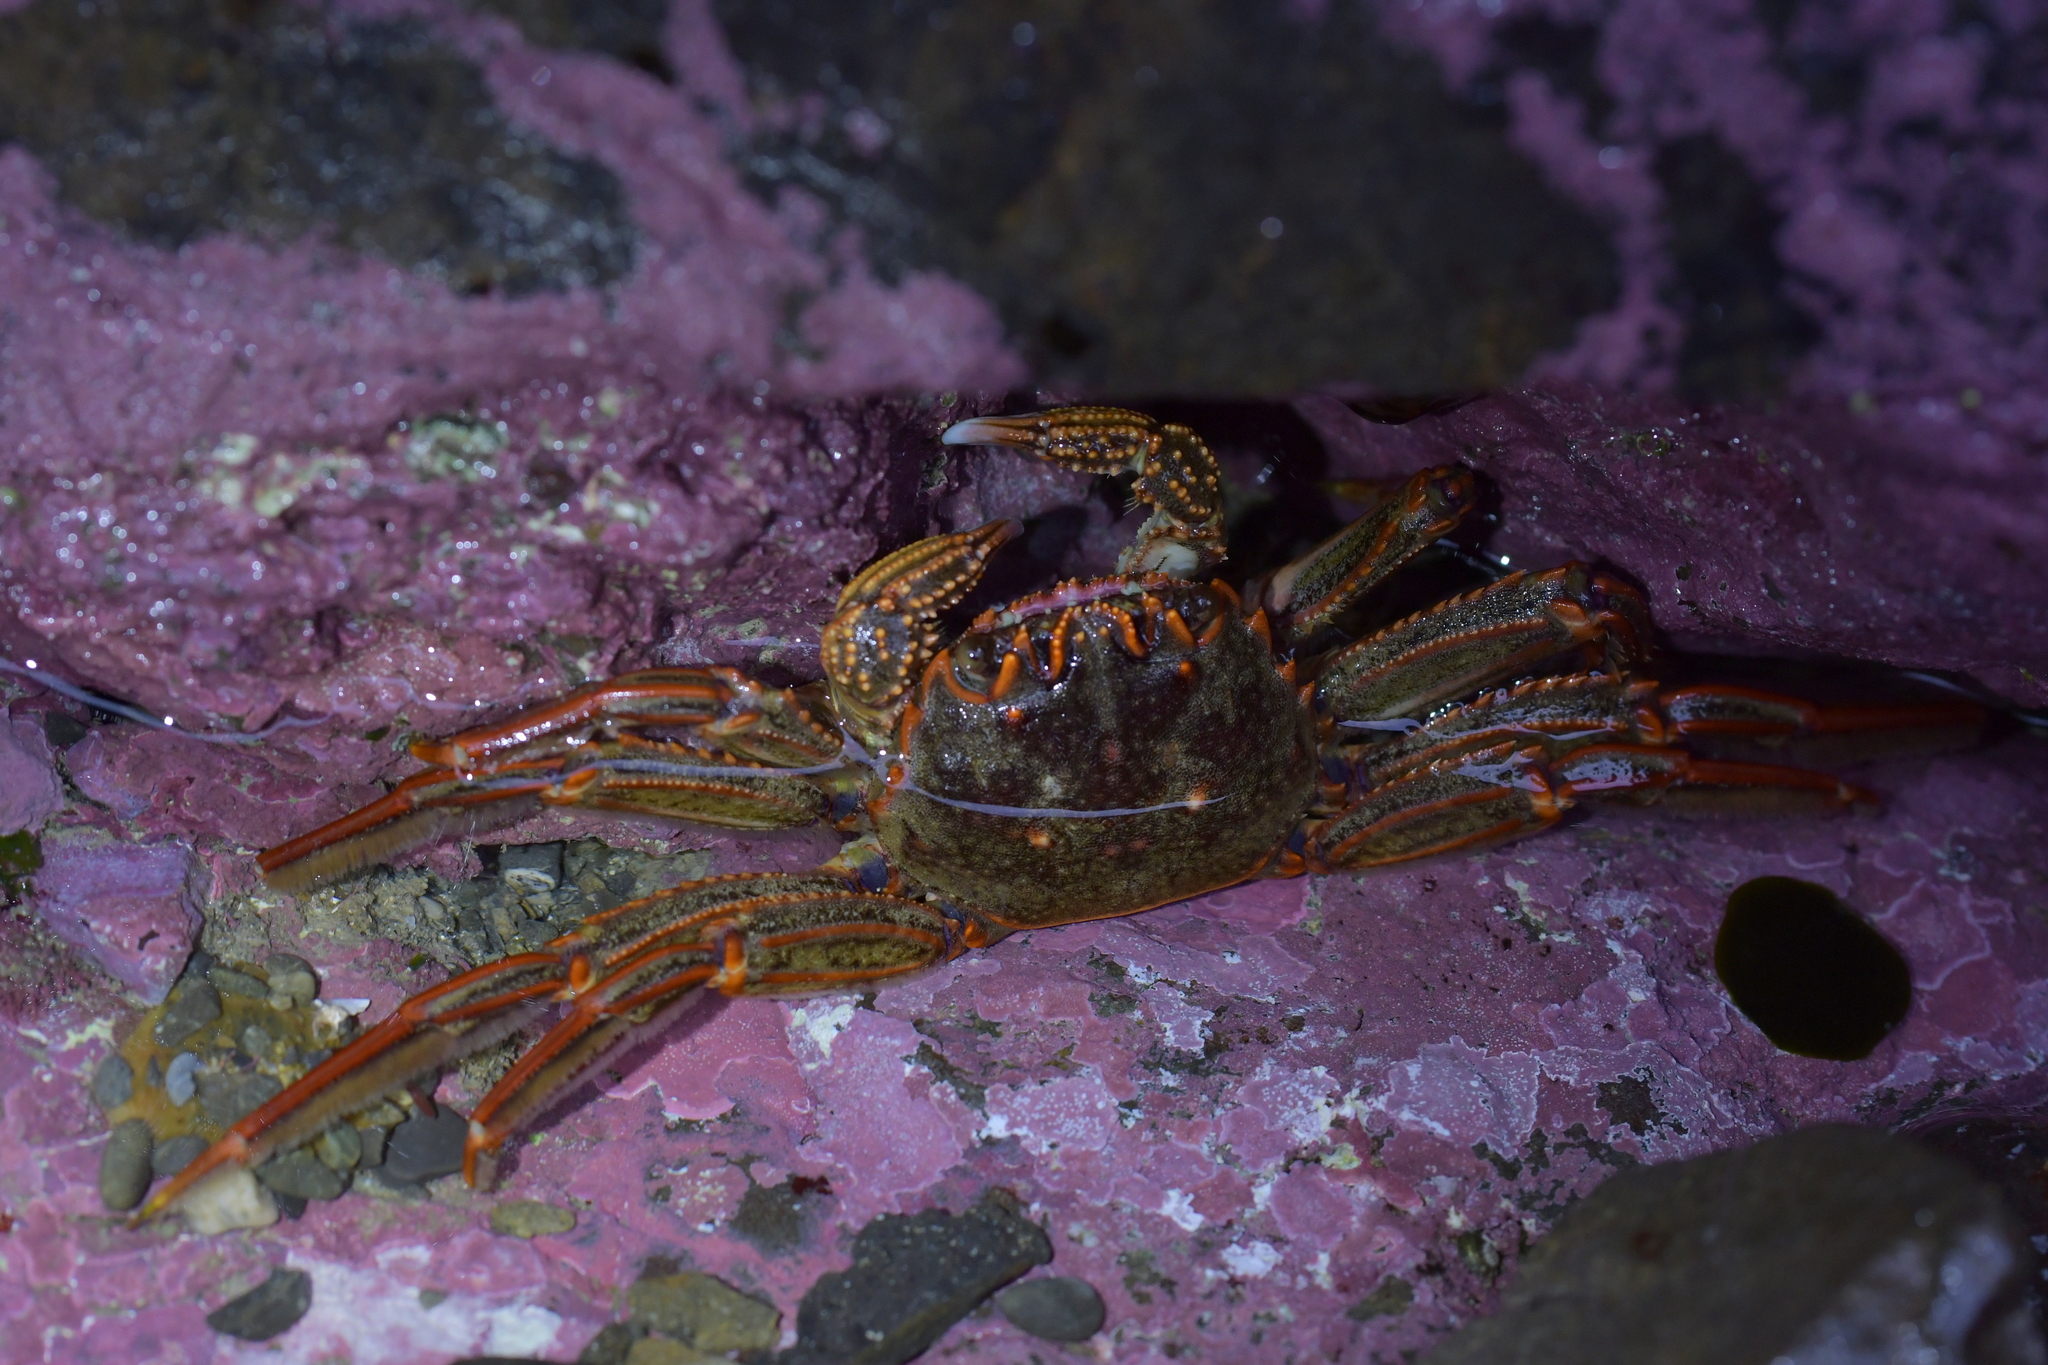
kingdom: Animalia
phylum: Arthropoda
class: Malacostraca
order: Decapoda
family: Plagusiidae
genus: Guinusia
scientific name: Guinusia chabrus
